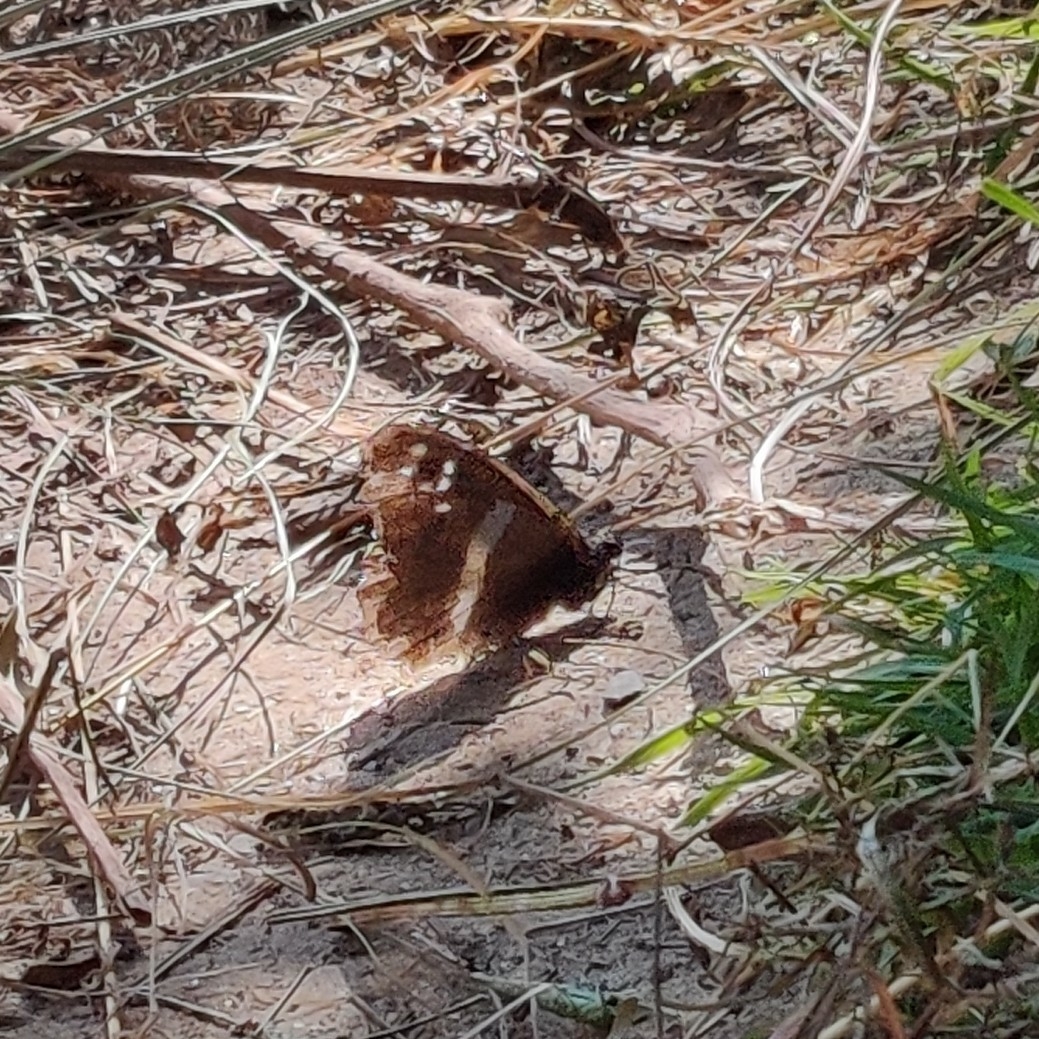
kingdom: Animalia
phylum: Arthropoda
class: Insecta
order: Lepidoptera
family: Nymphalidae
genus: Satyrus
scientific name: Satyrus
